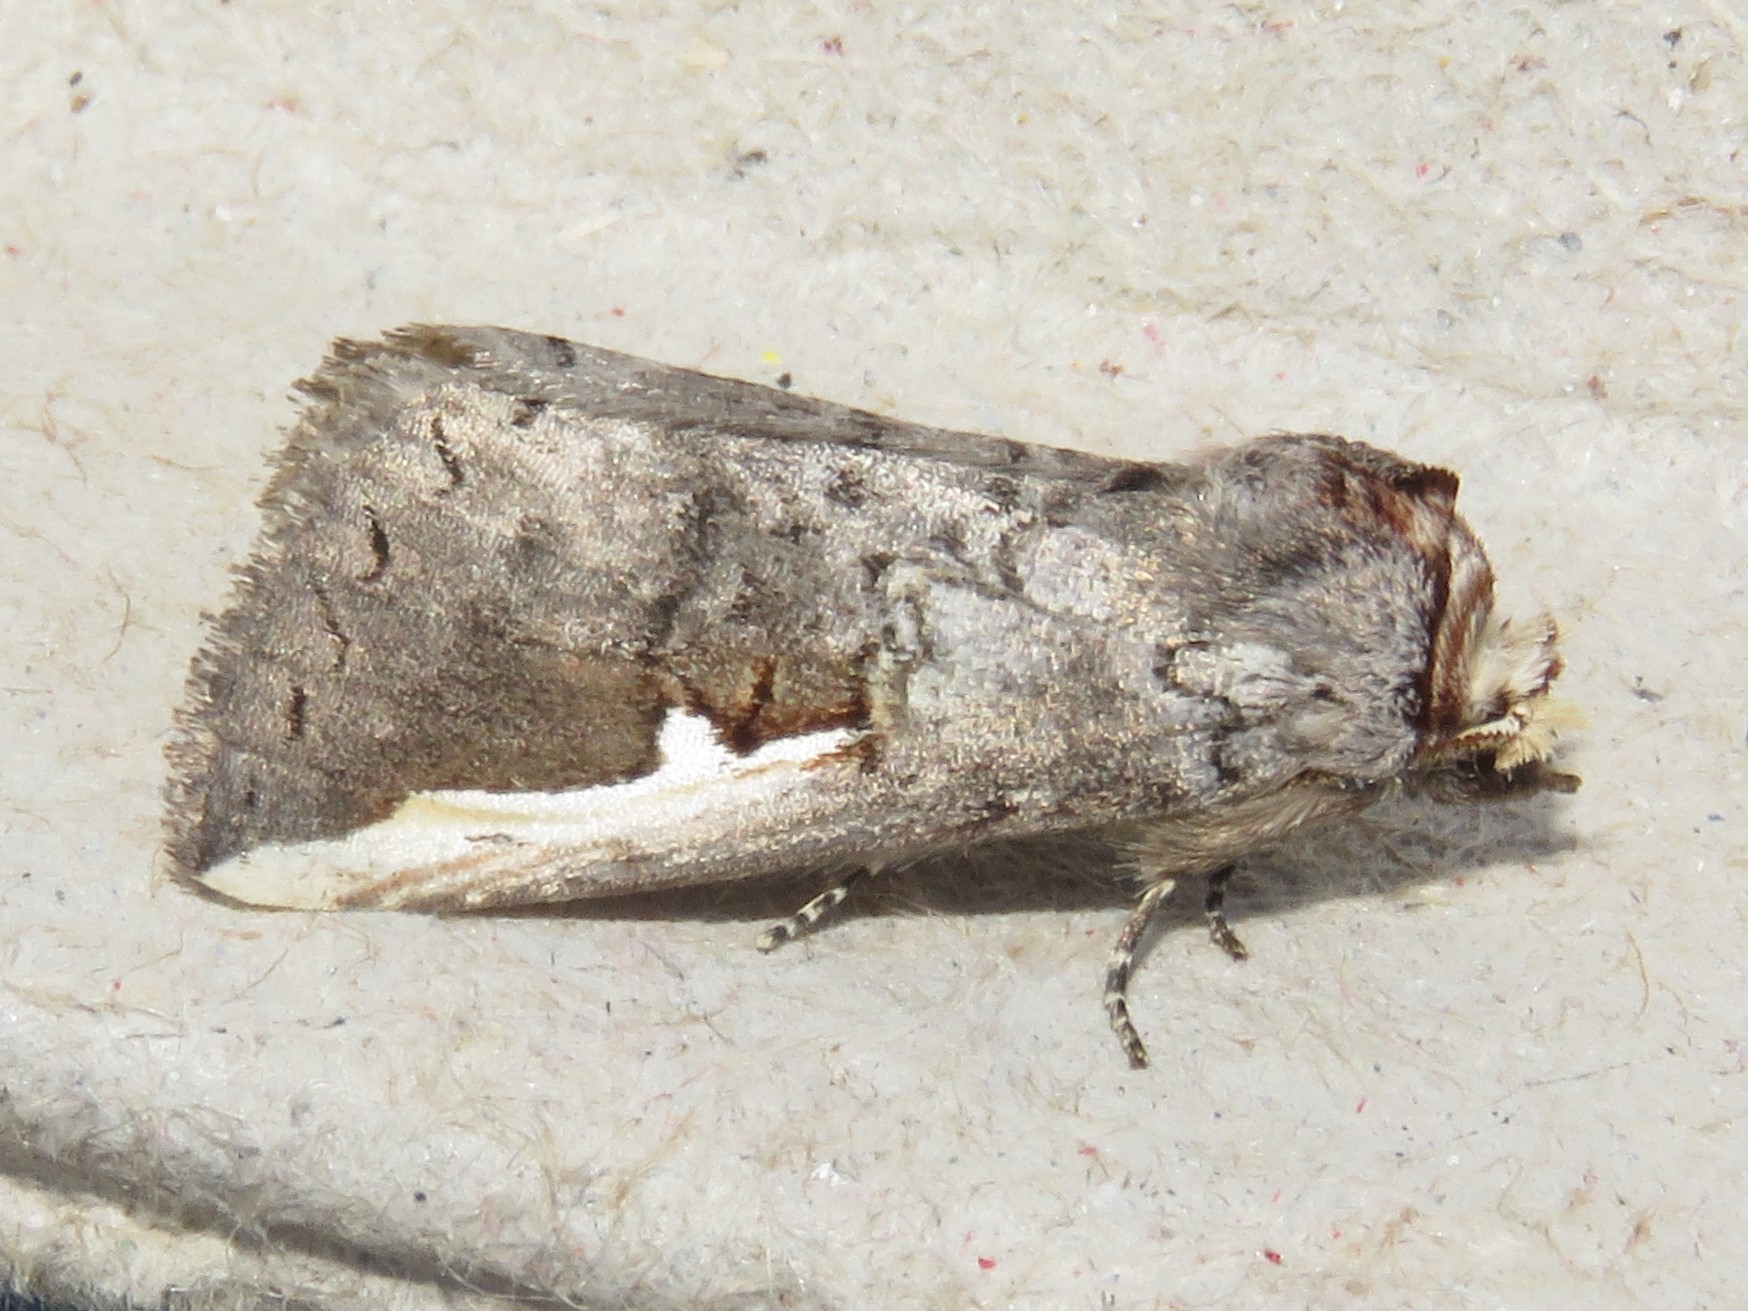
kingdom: Animalia
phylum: Arthropoda
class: Insecta
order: Lepidoptera
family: Notodontidae
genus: Symmerista
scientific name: Symmerista albifrons
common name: White-headed prominent
